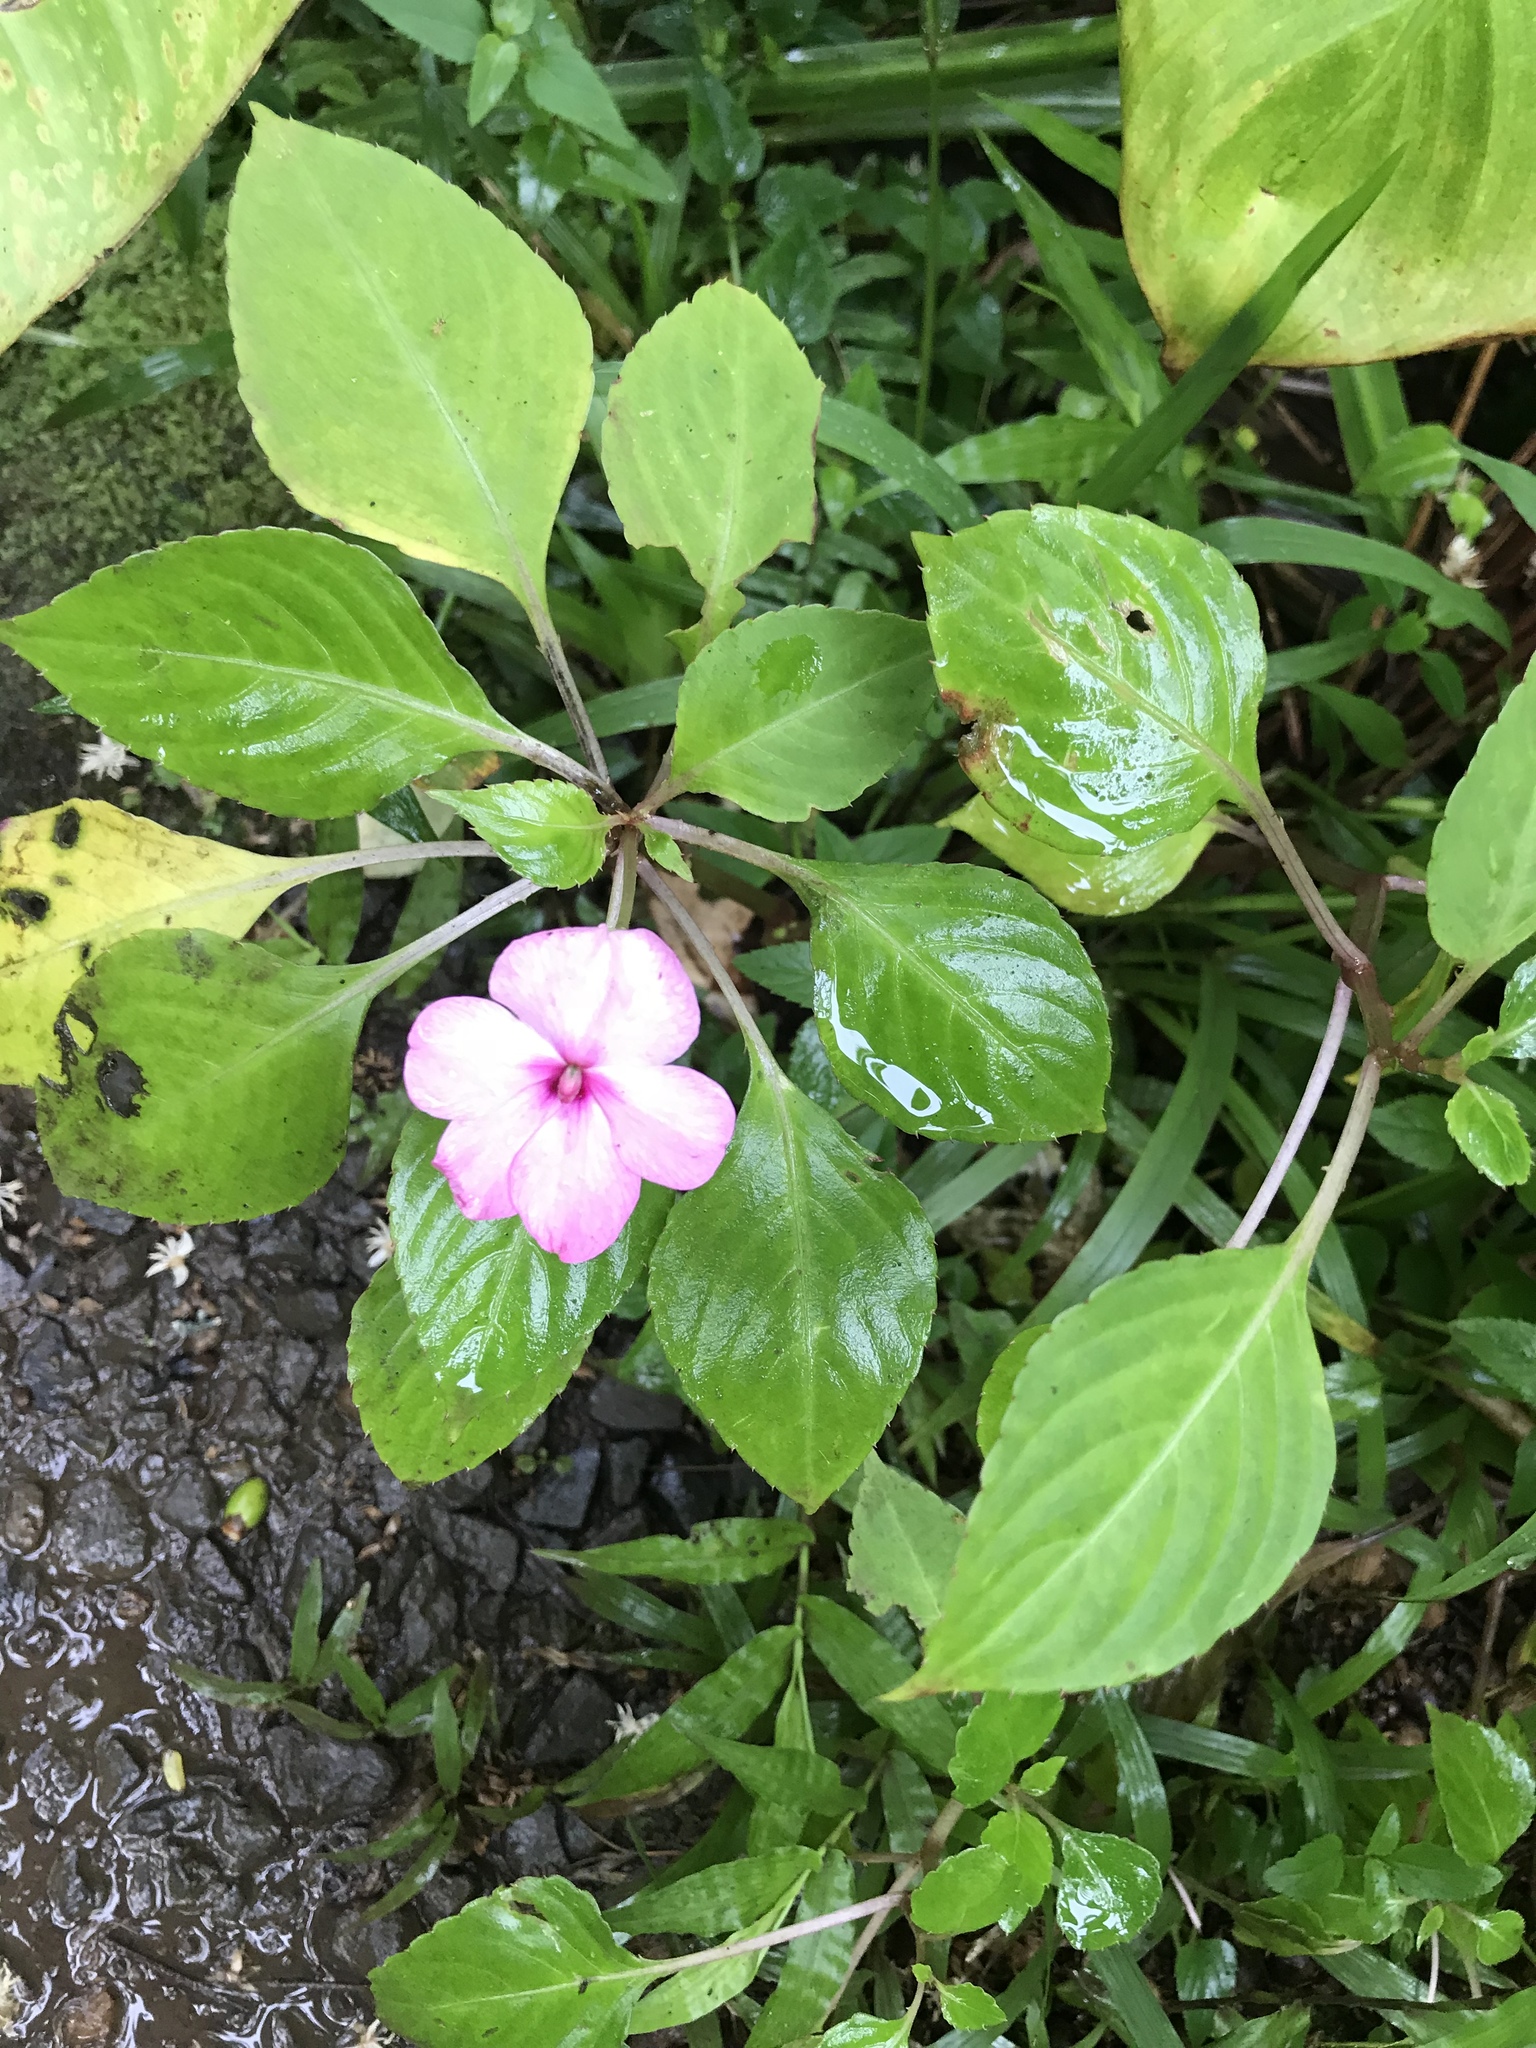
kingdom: Plantae
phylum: Tracheophyta
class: Magnoliopsida
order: Ericales
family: Balsaminaceae
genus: Impatiens
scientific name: Impatiens walleriana
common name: Buzzy lizzy
